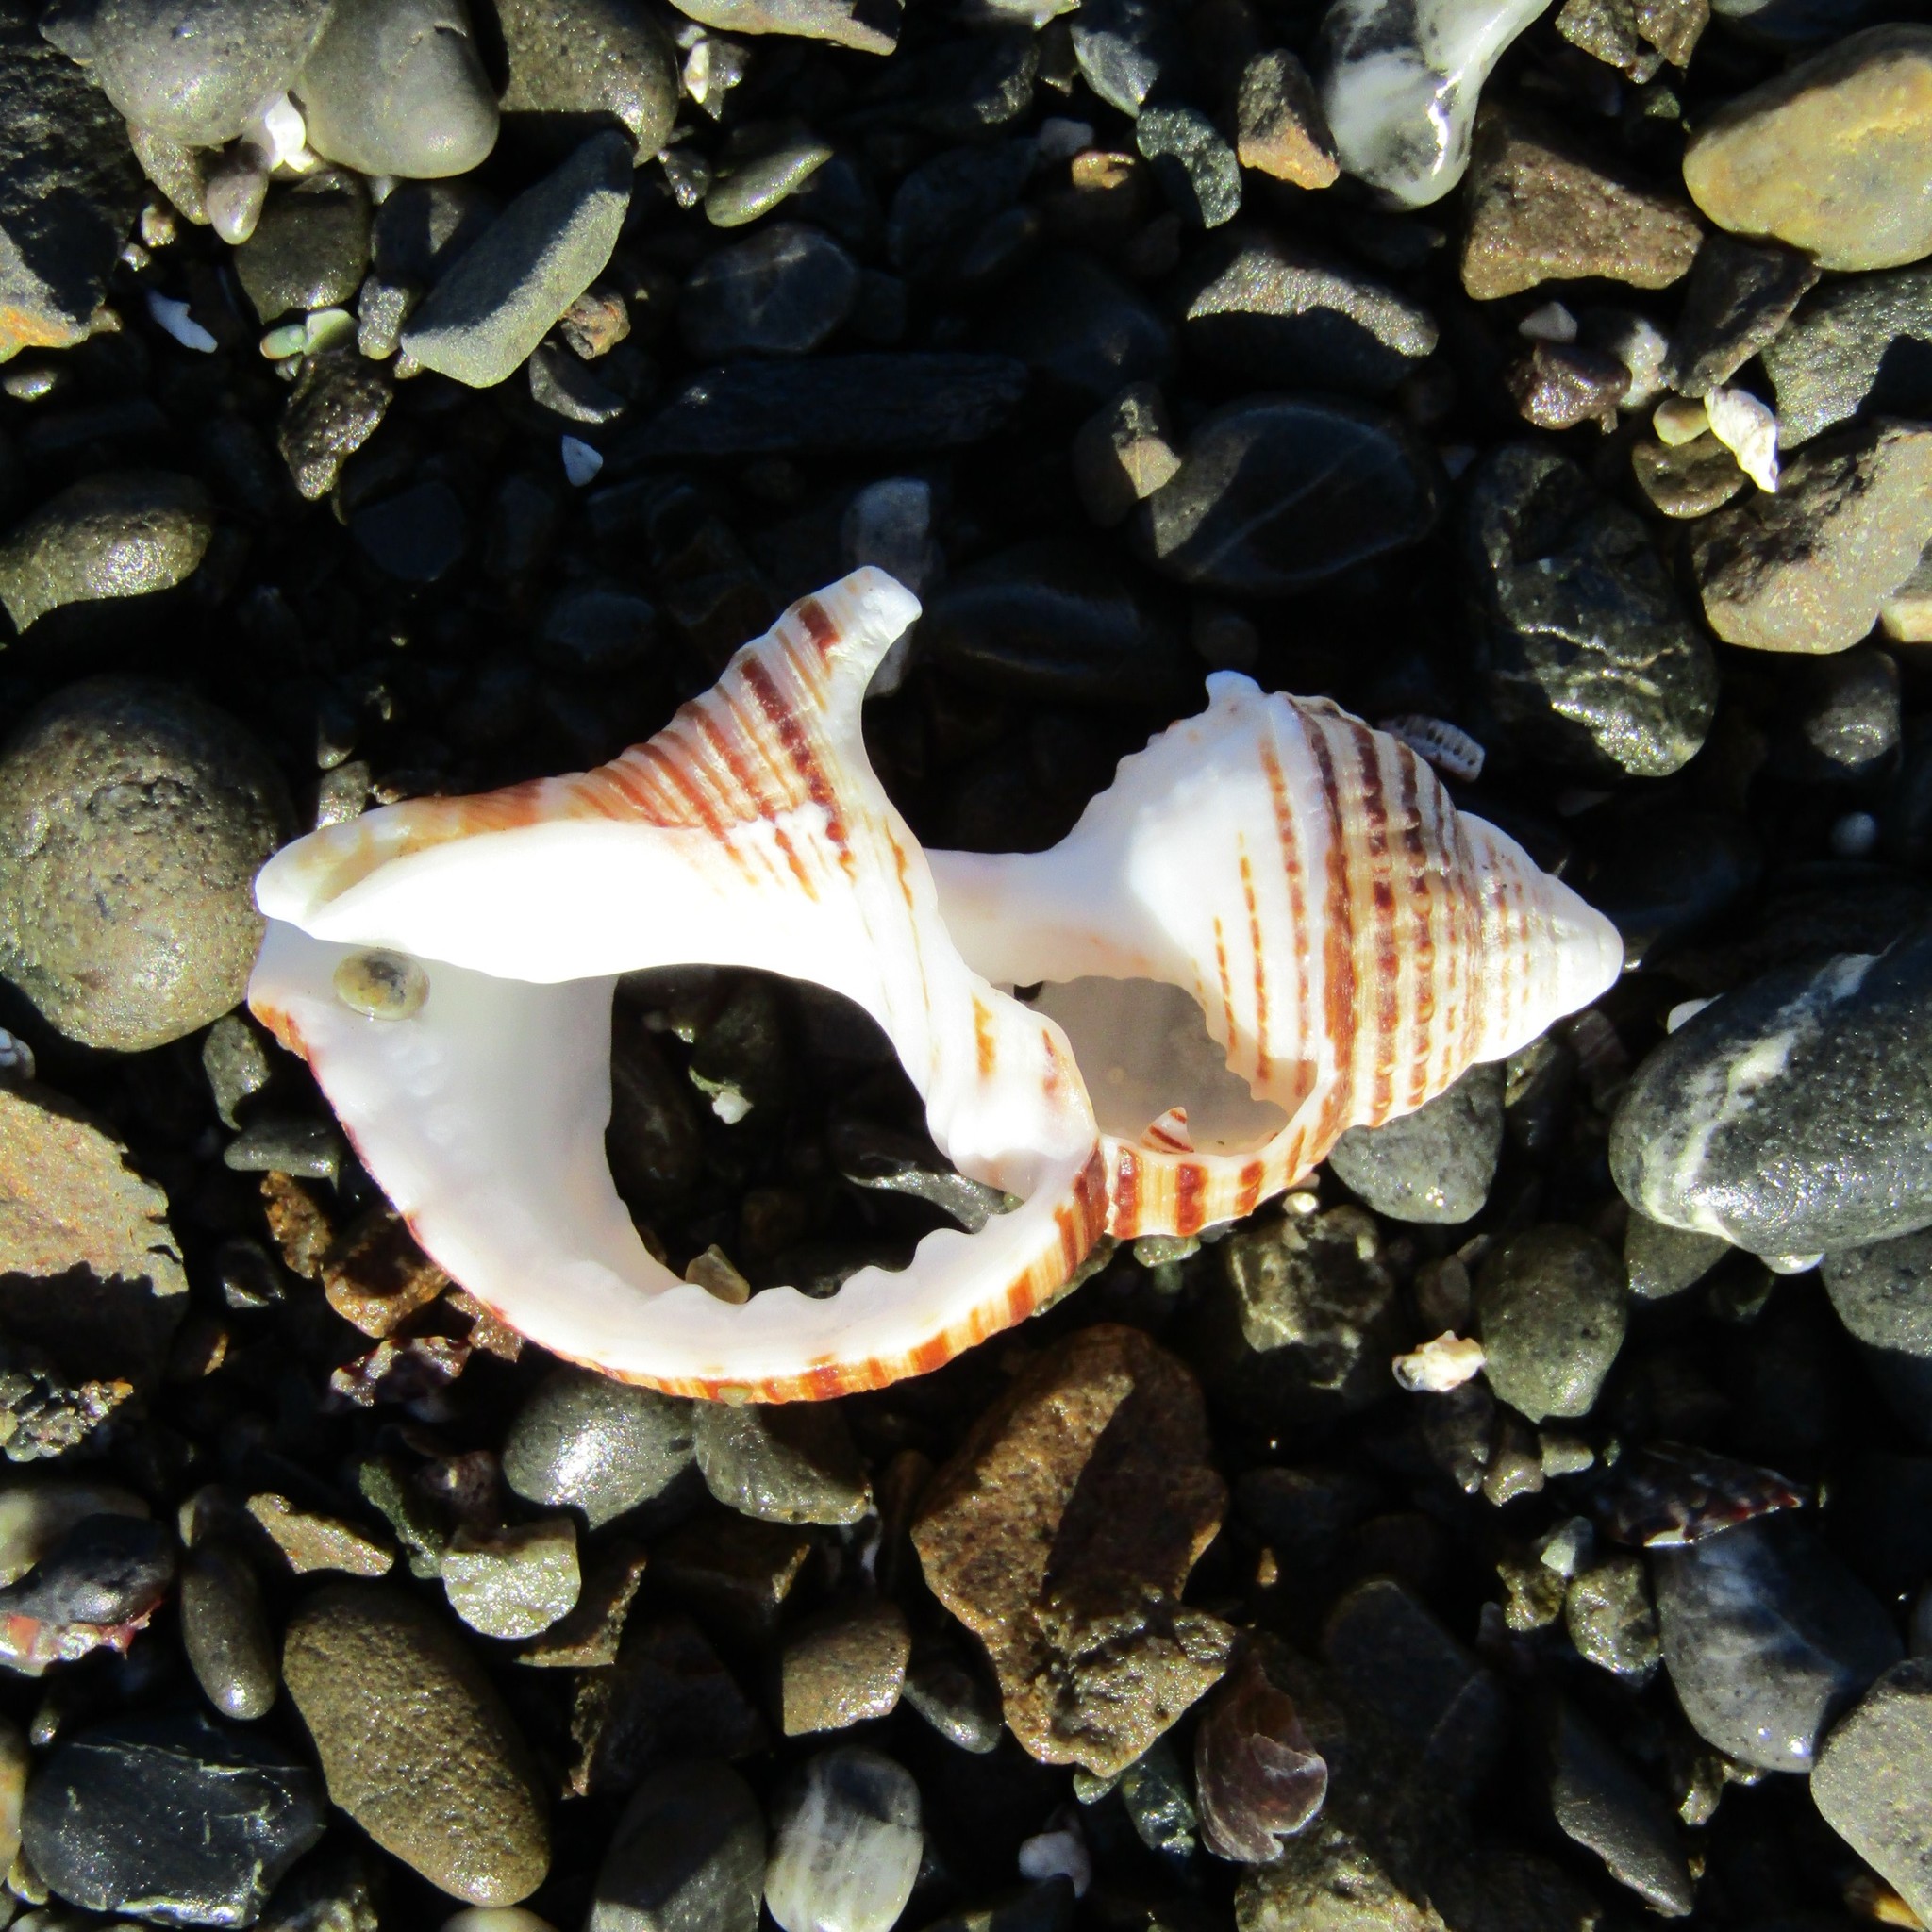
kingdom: Animalia
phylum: Mollusca
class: Gastropoda
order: Littorinimorpha
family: Cymatiidae
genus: Argobuccinum
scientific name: Argobuccinum pustulosum
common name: Pustular triton
